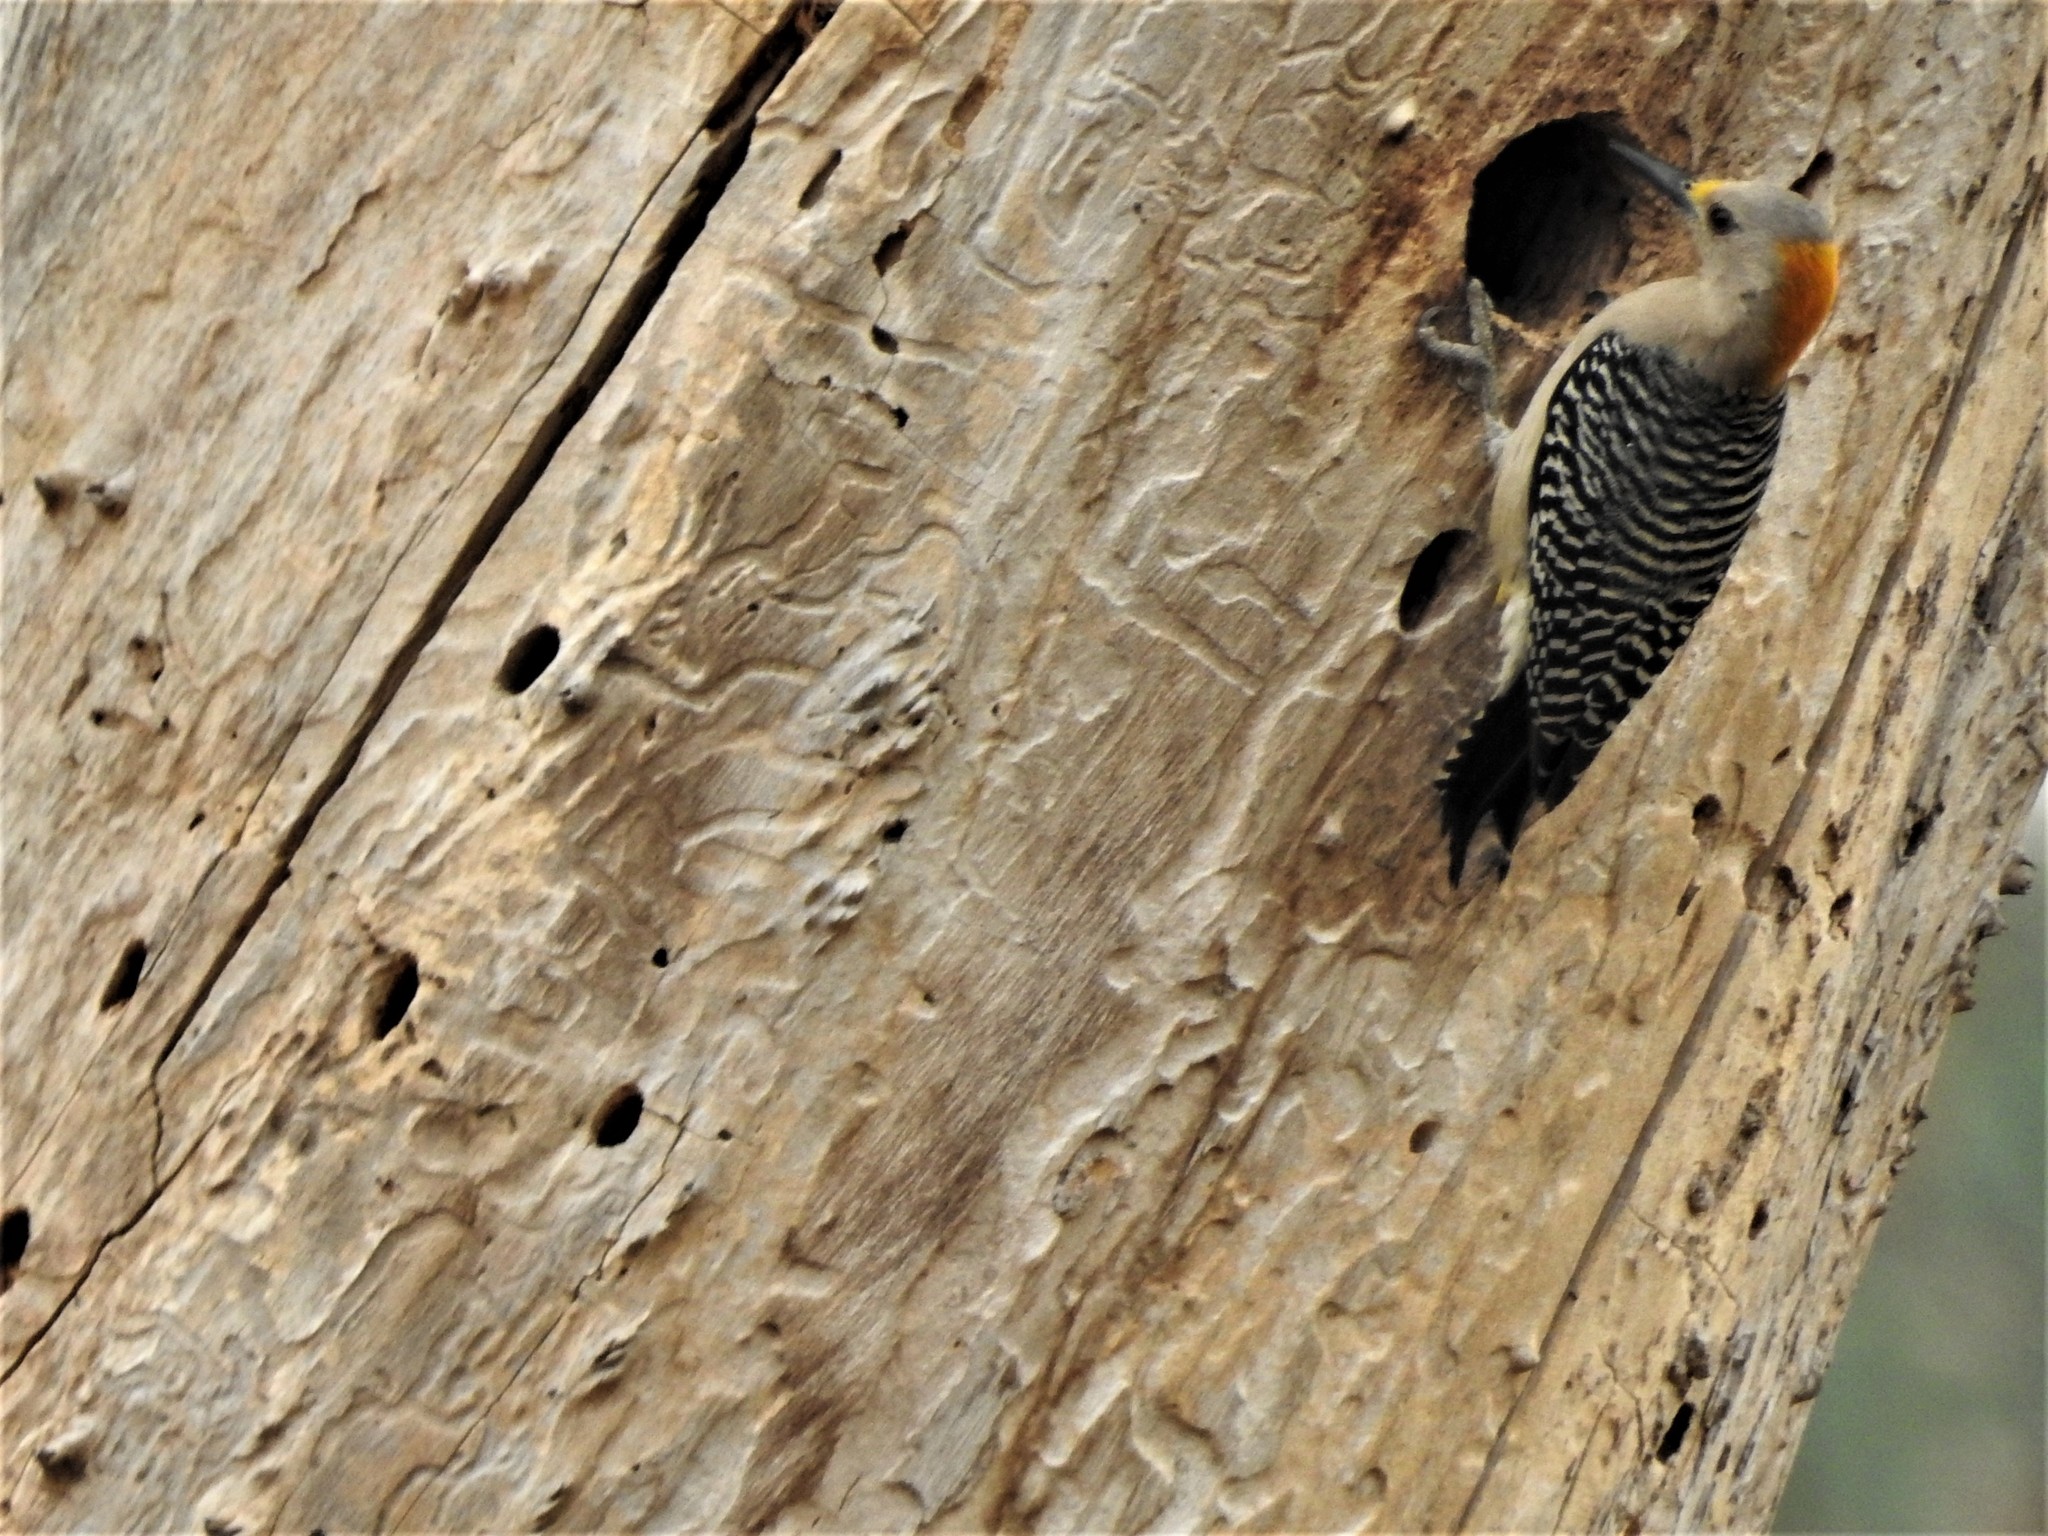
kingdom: Animalia
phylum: Chordata
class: Aves
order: Piciformes
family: Picidae
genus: Melanerpes
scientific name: Melanerpes aurifrons
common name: Golden-fronted woodpecker
